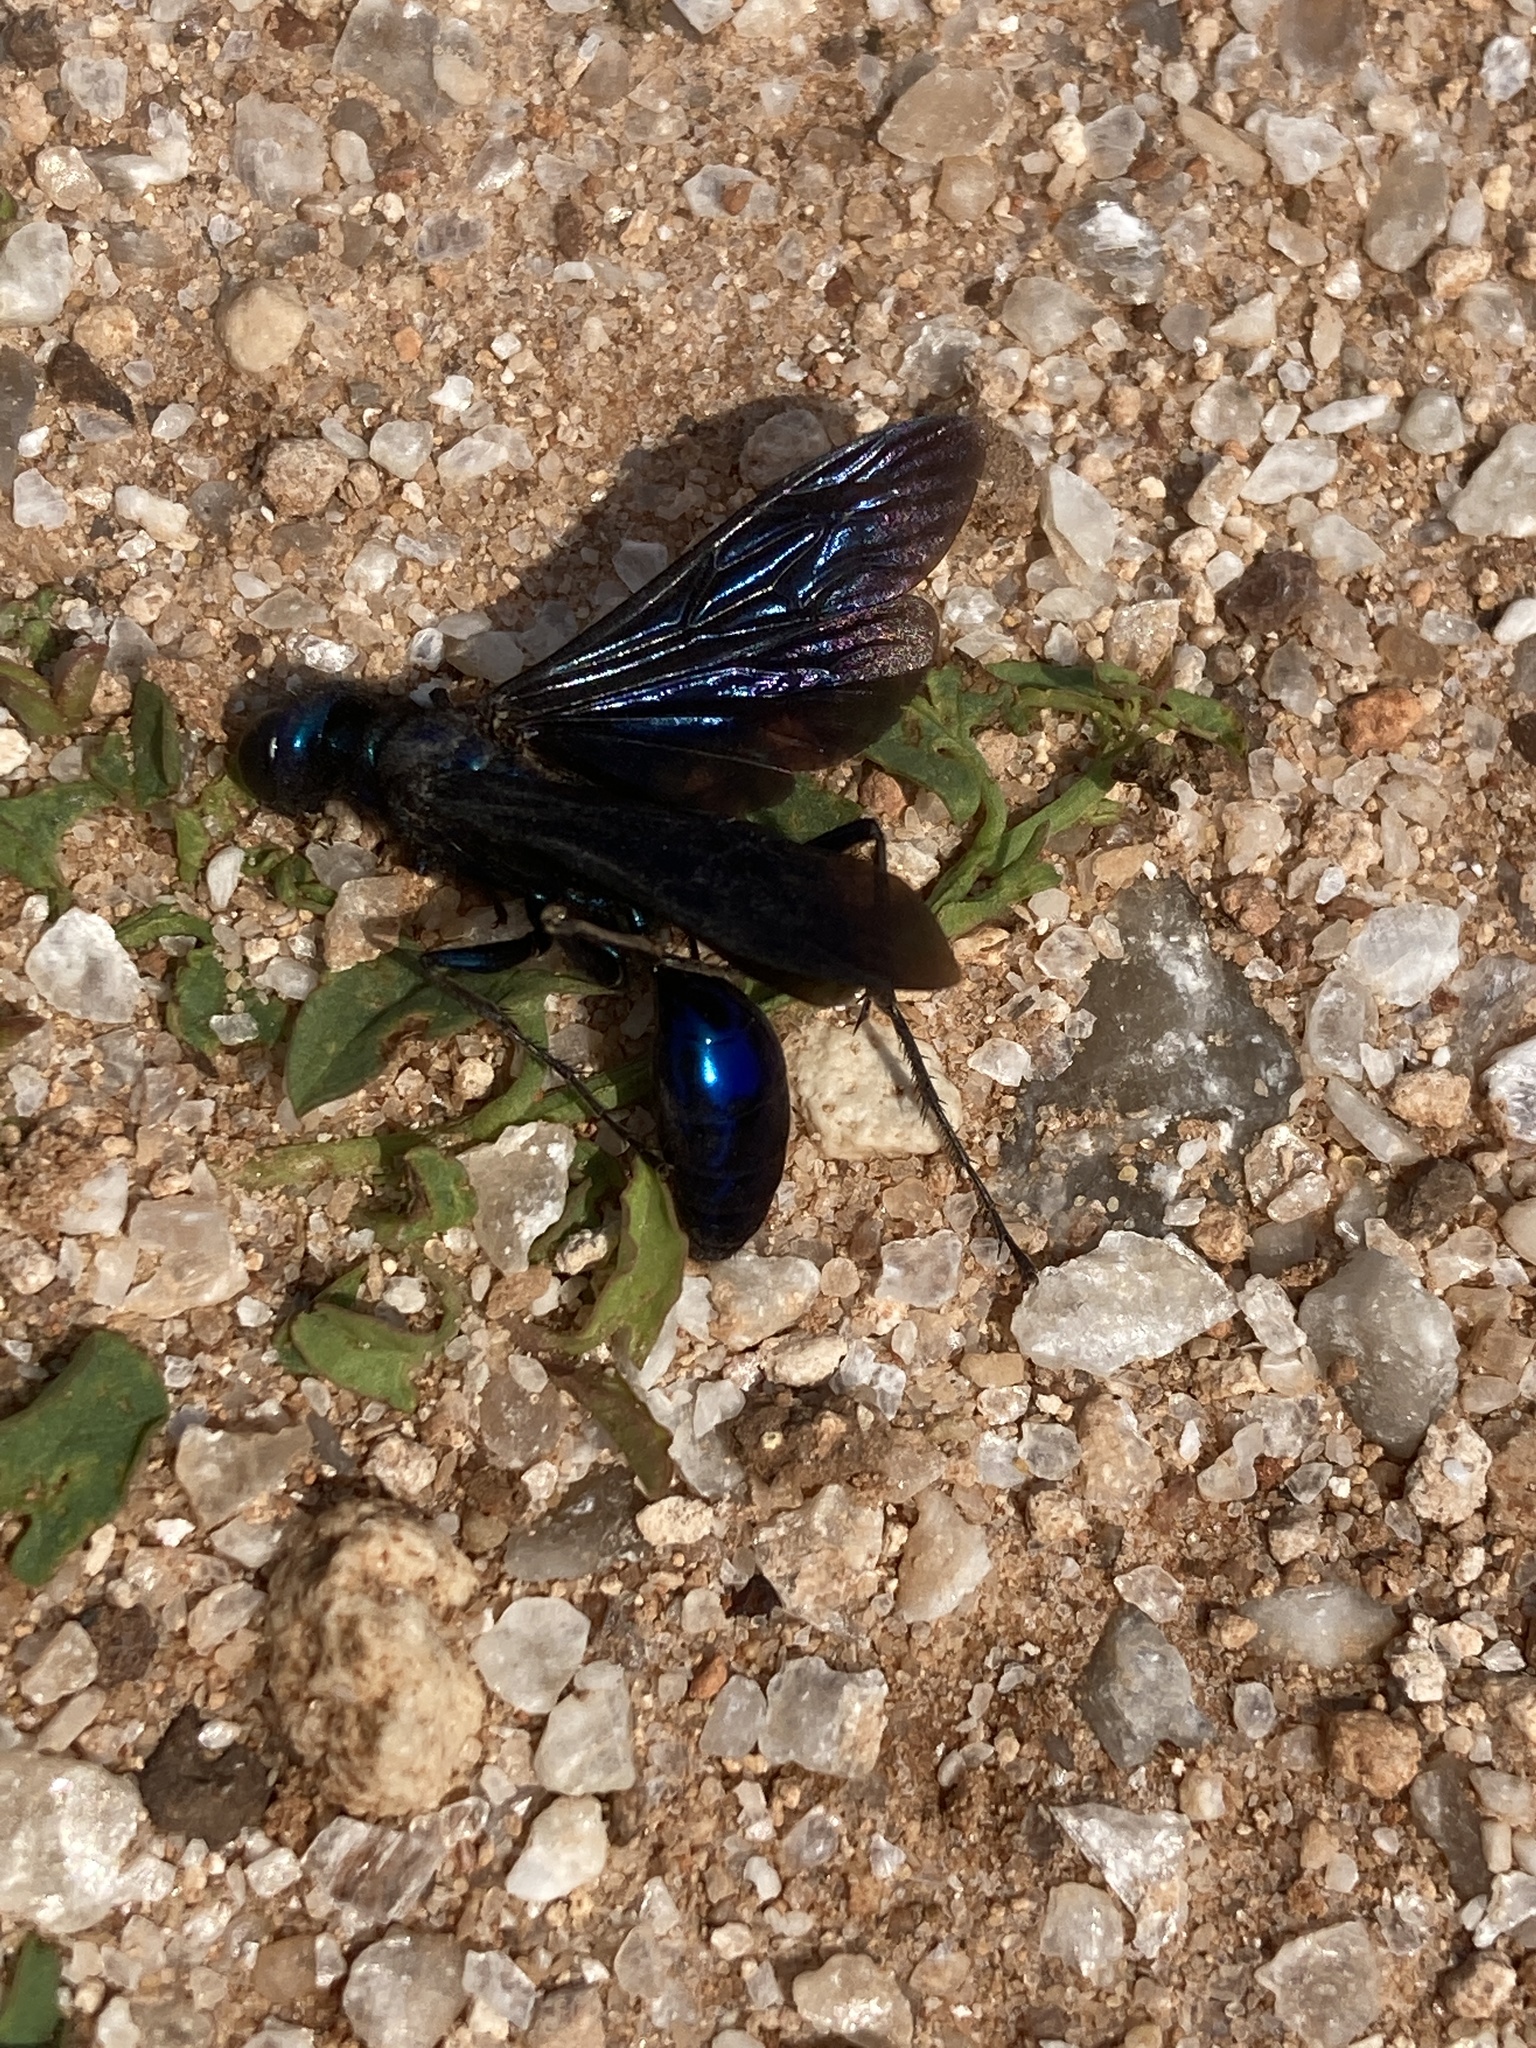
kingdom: Animalia
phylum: Arthropoda
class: Insecta
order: Hymenoptera
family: Sphecidae
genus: Chlorion
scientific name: Chlorion aerarium
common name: Steel-blue cricket hunter
